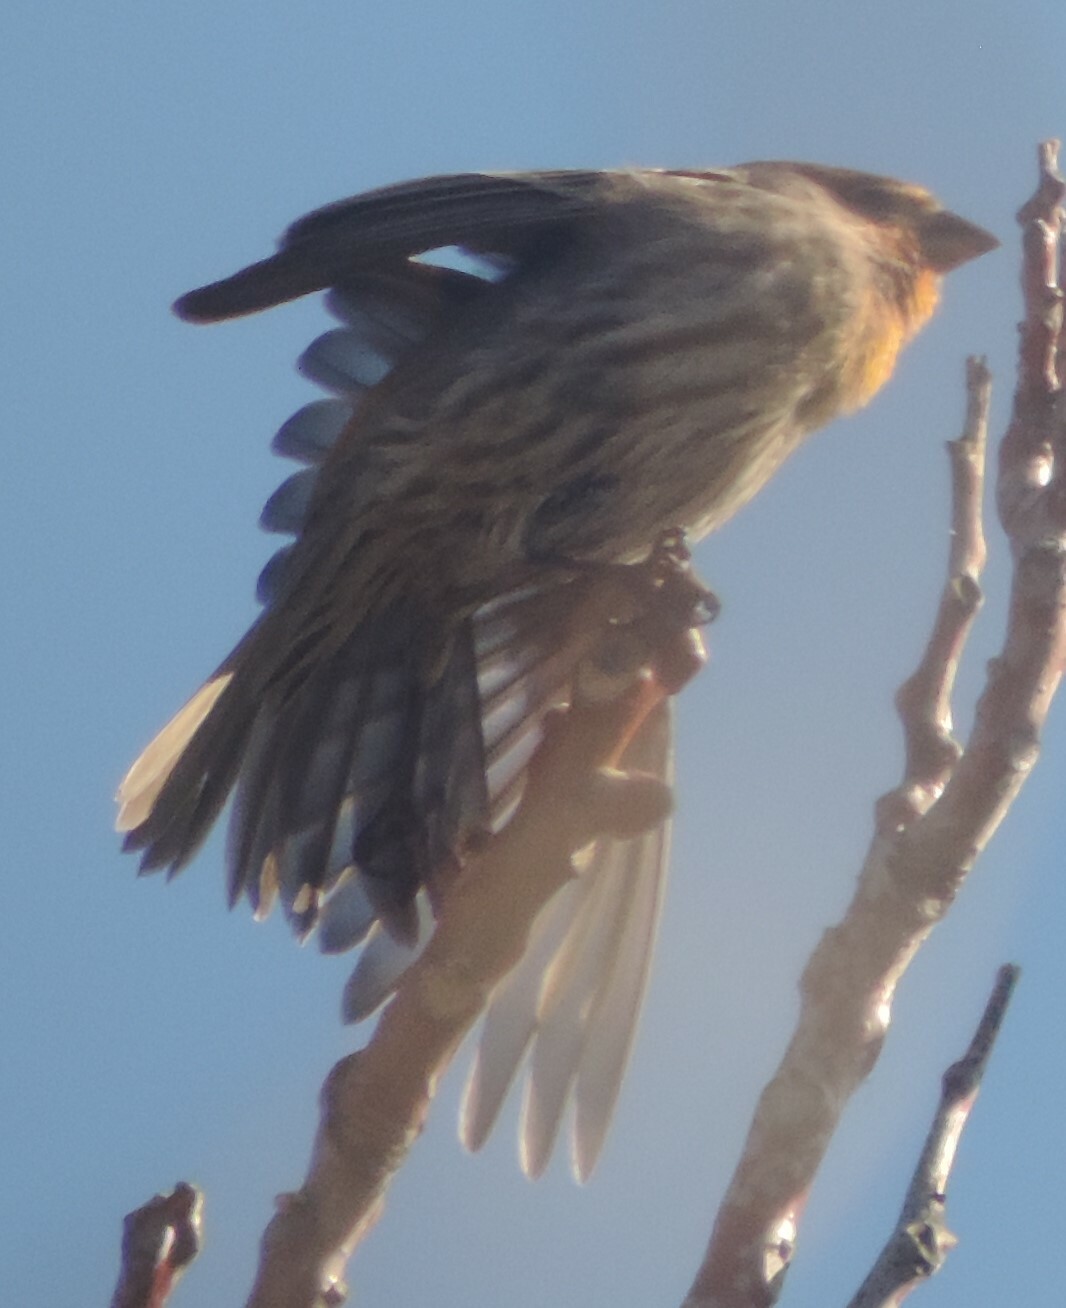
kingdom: Animalia
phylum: Chordata
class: Aves
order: Passeriformes
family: Fringillidae
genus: Haemorhous
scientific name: Haemorhous mexicanus
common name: House finch
